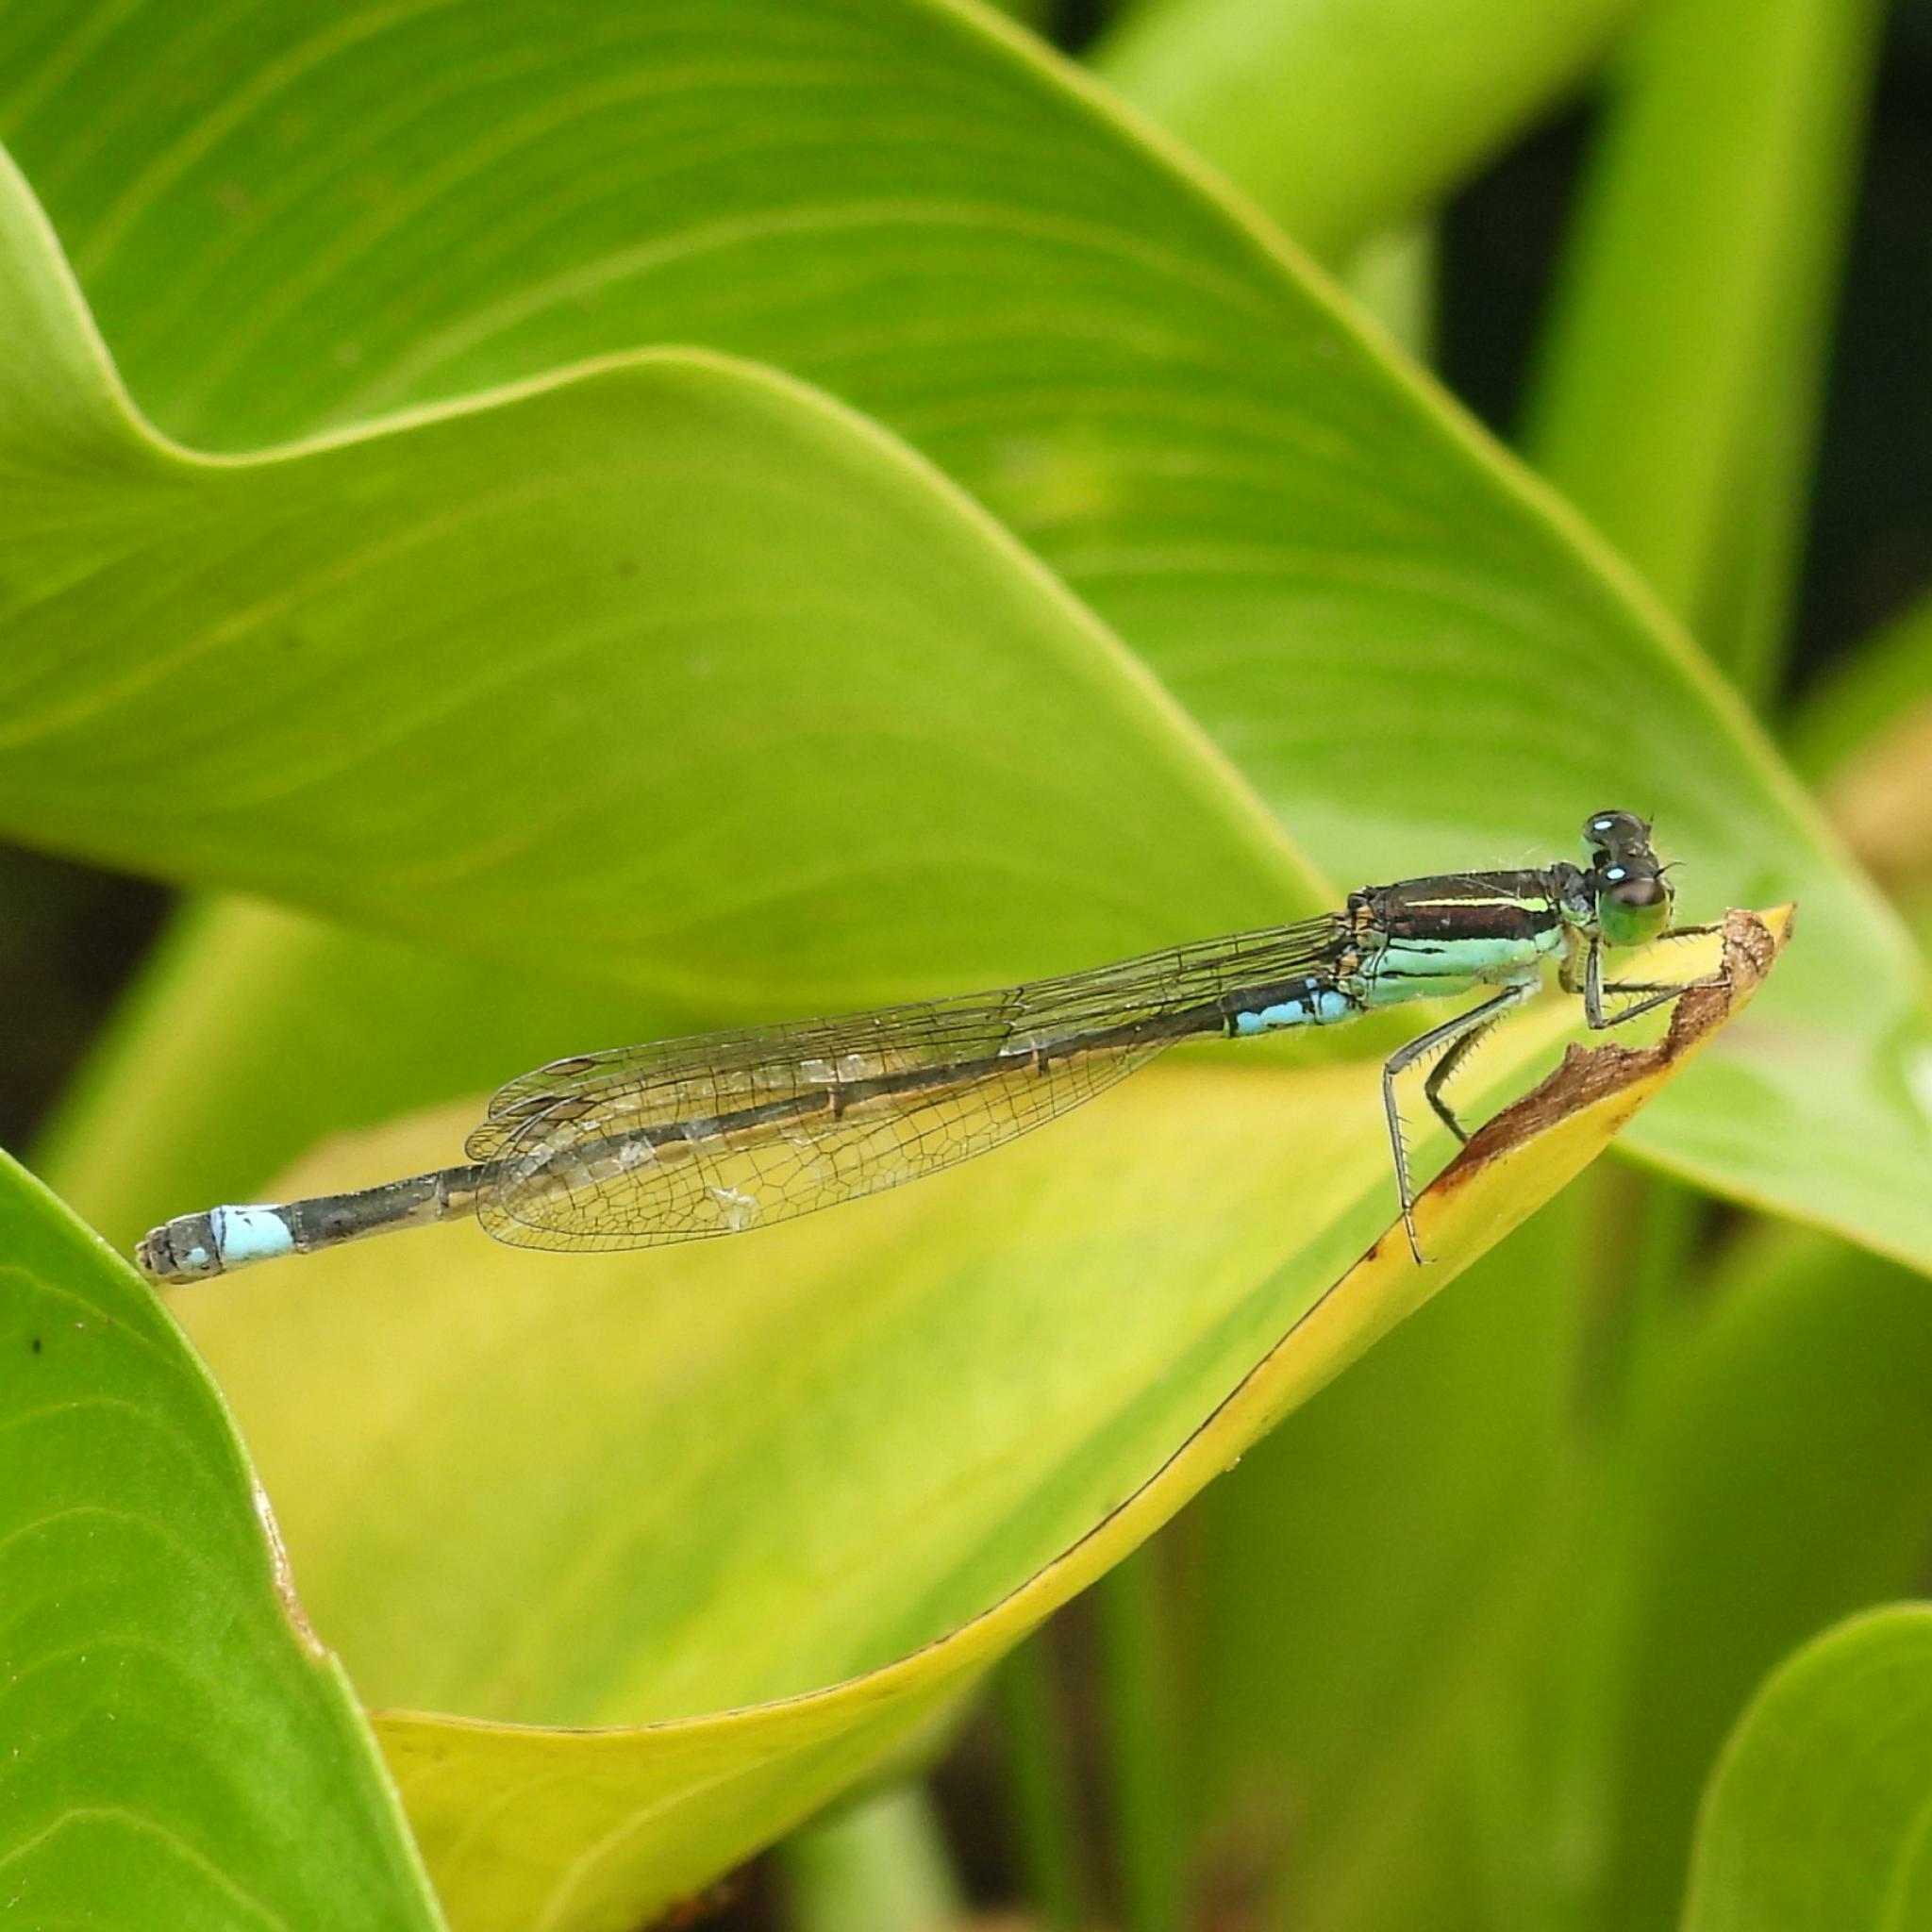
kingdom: Animalia
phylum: Arthropoda
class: Insecta
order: Odonata
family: Coenagrionidae
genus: Ischnura
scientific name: Ischnura senegalensis
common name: Tropical bluetail
